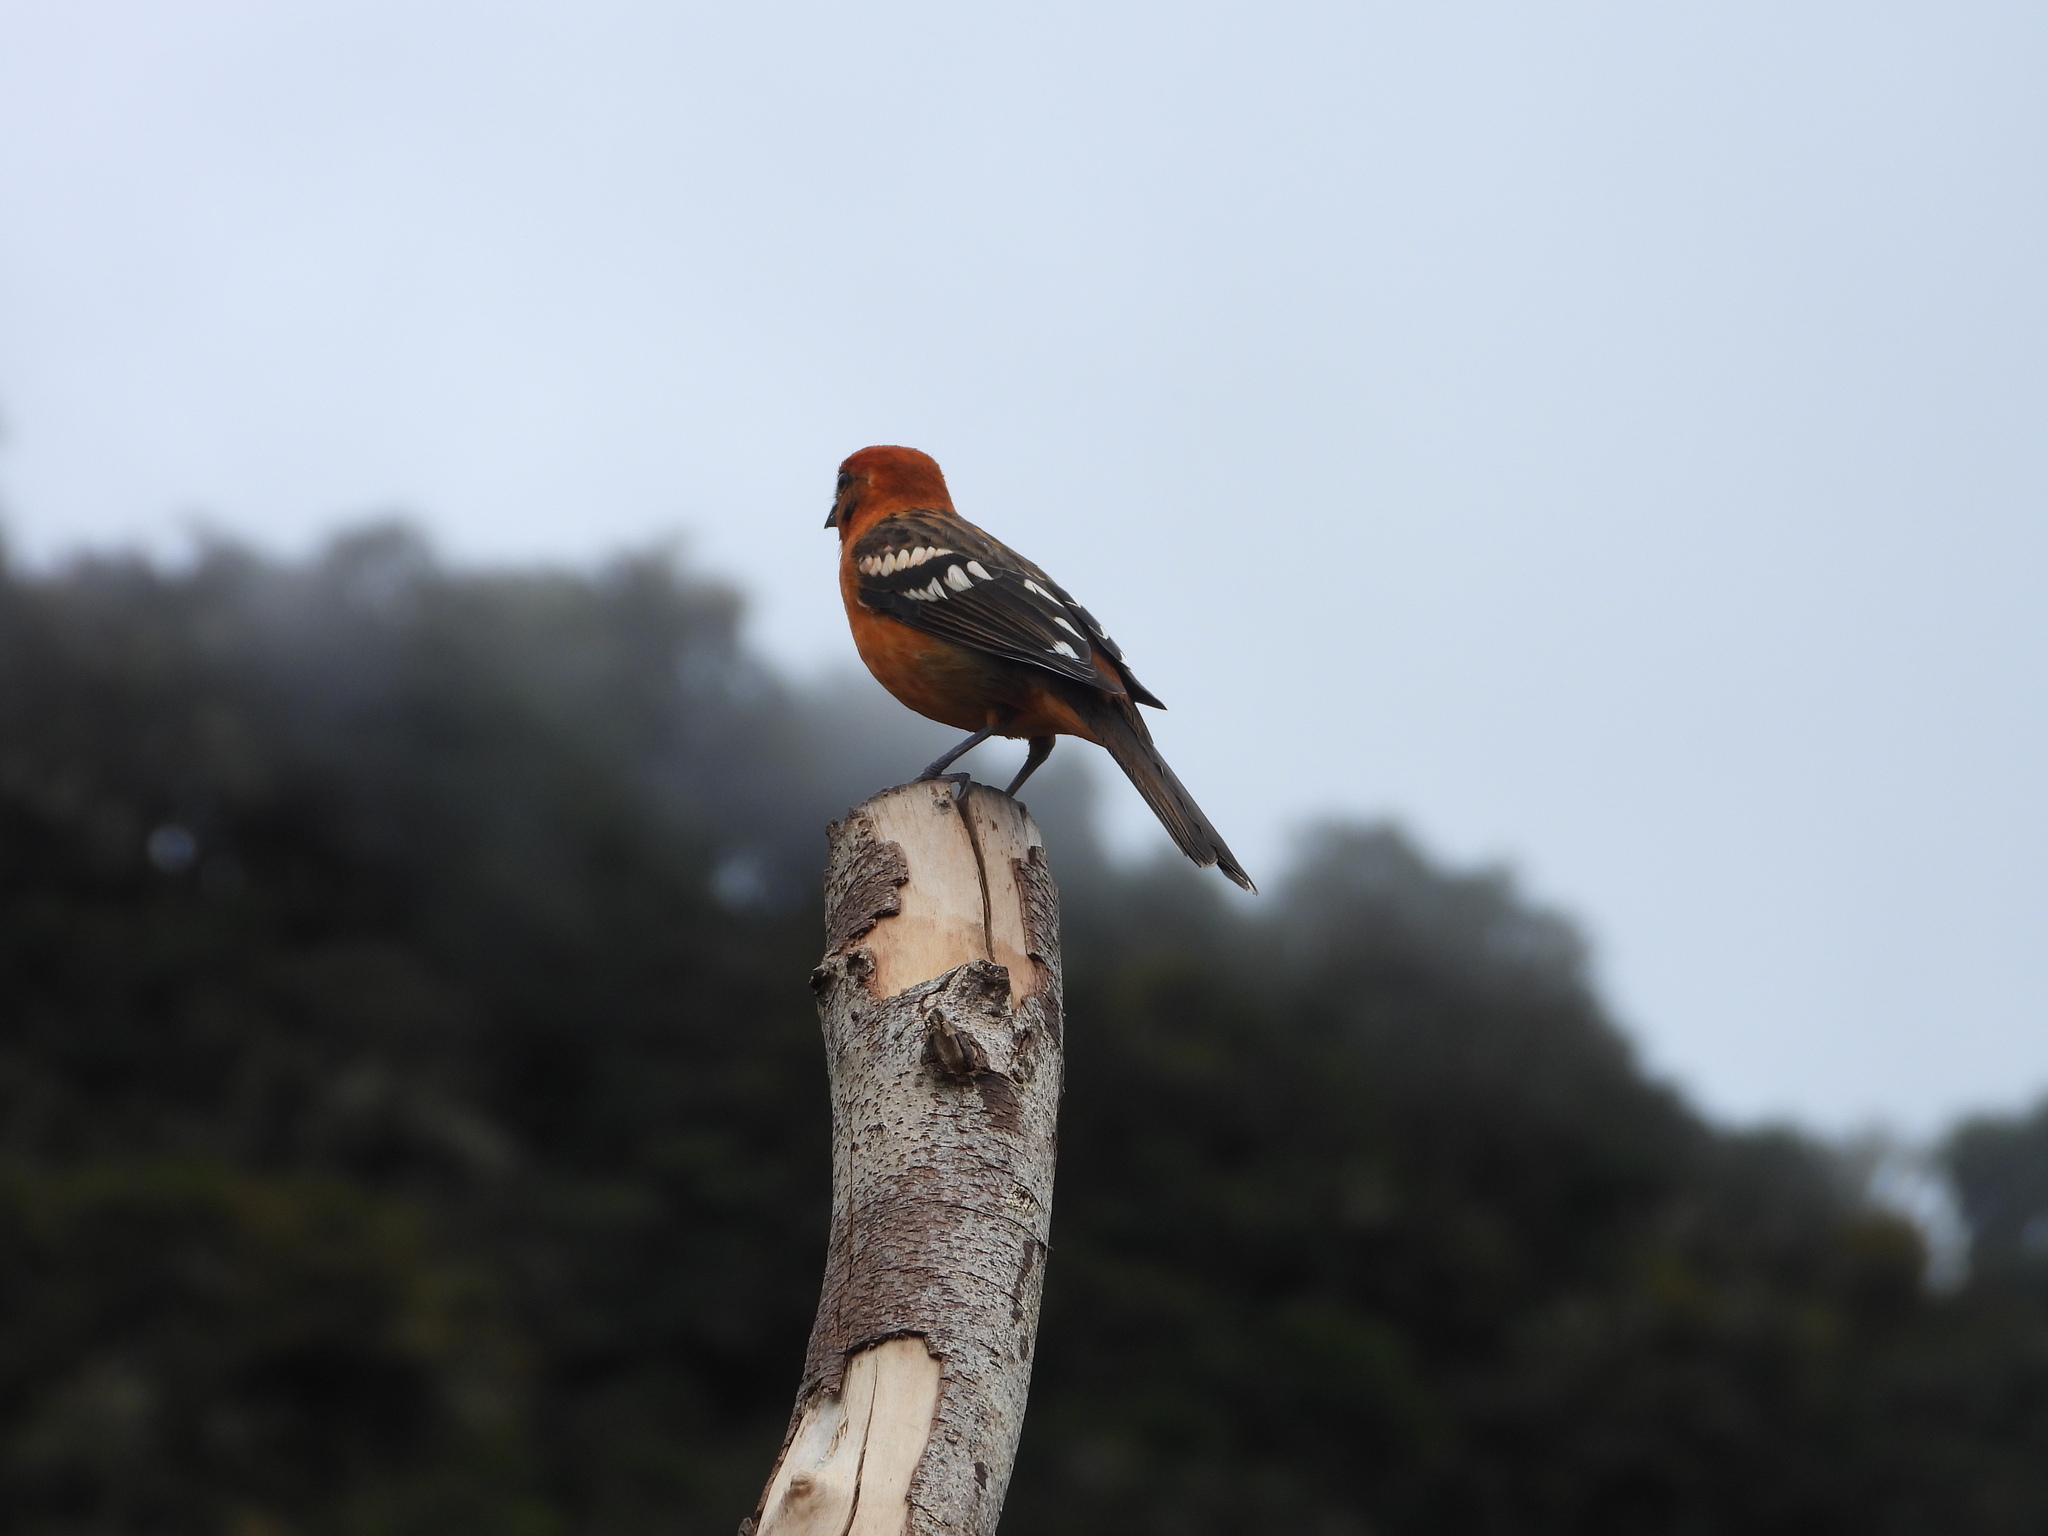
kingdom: Animalia
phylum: Chordata
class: Aves
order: Passeriformes
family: Cardinalidae
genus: Piranga
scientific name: Piranga bidentata
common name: Flame-colored tanager
